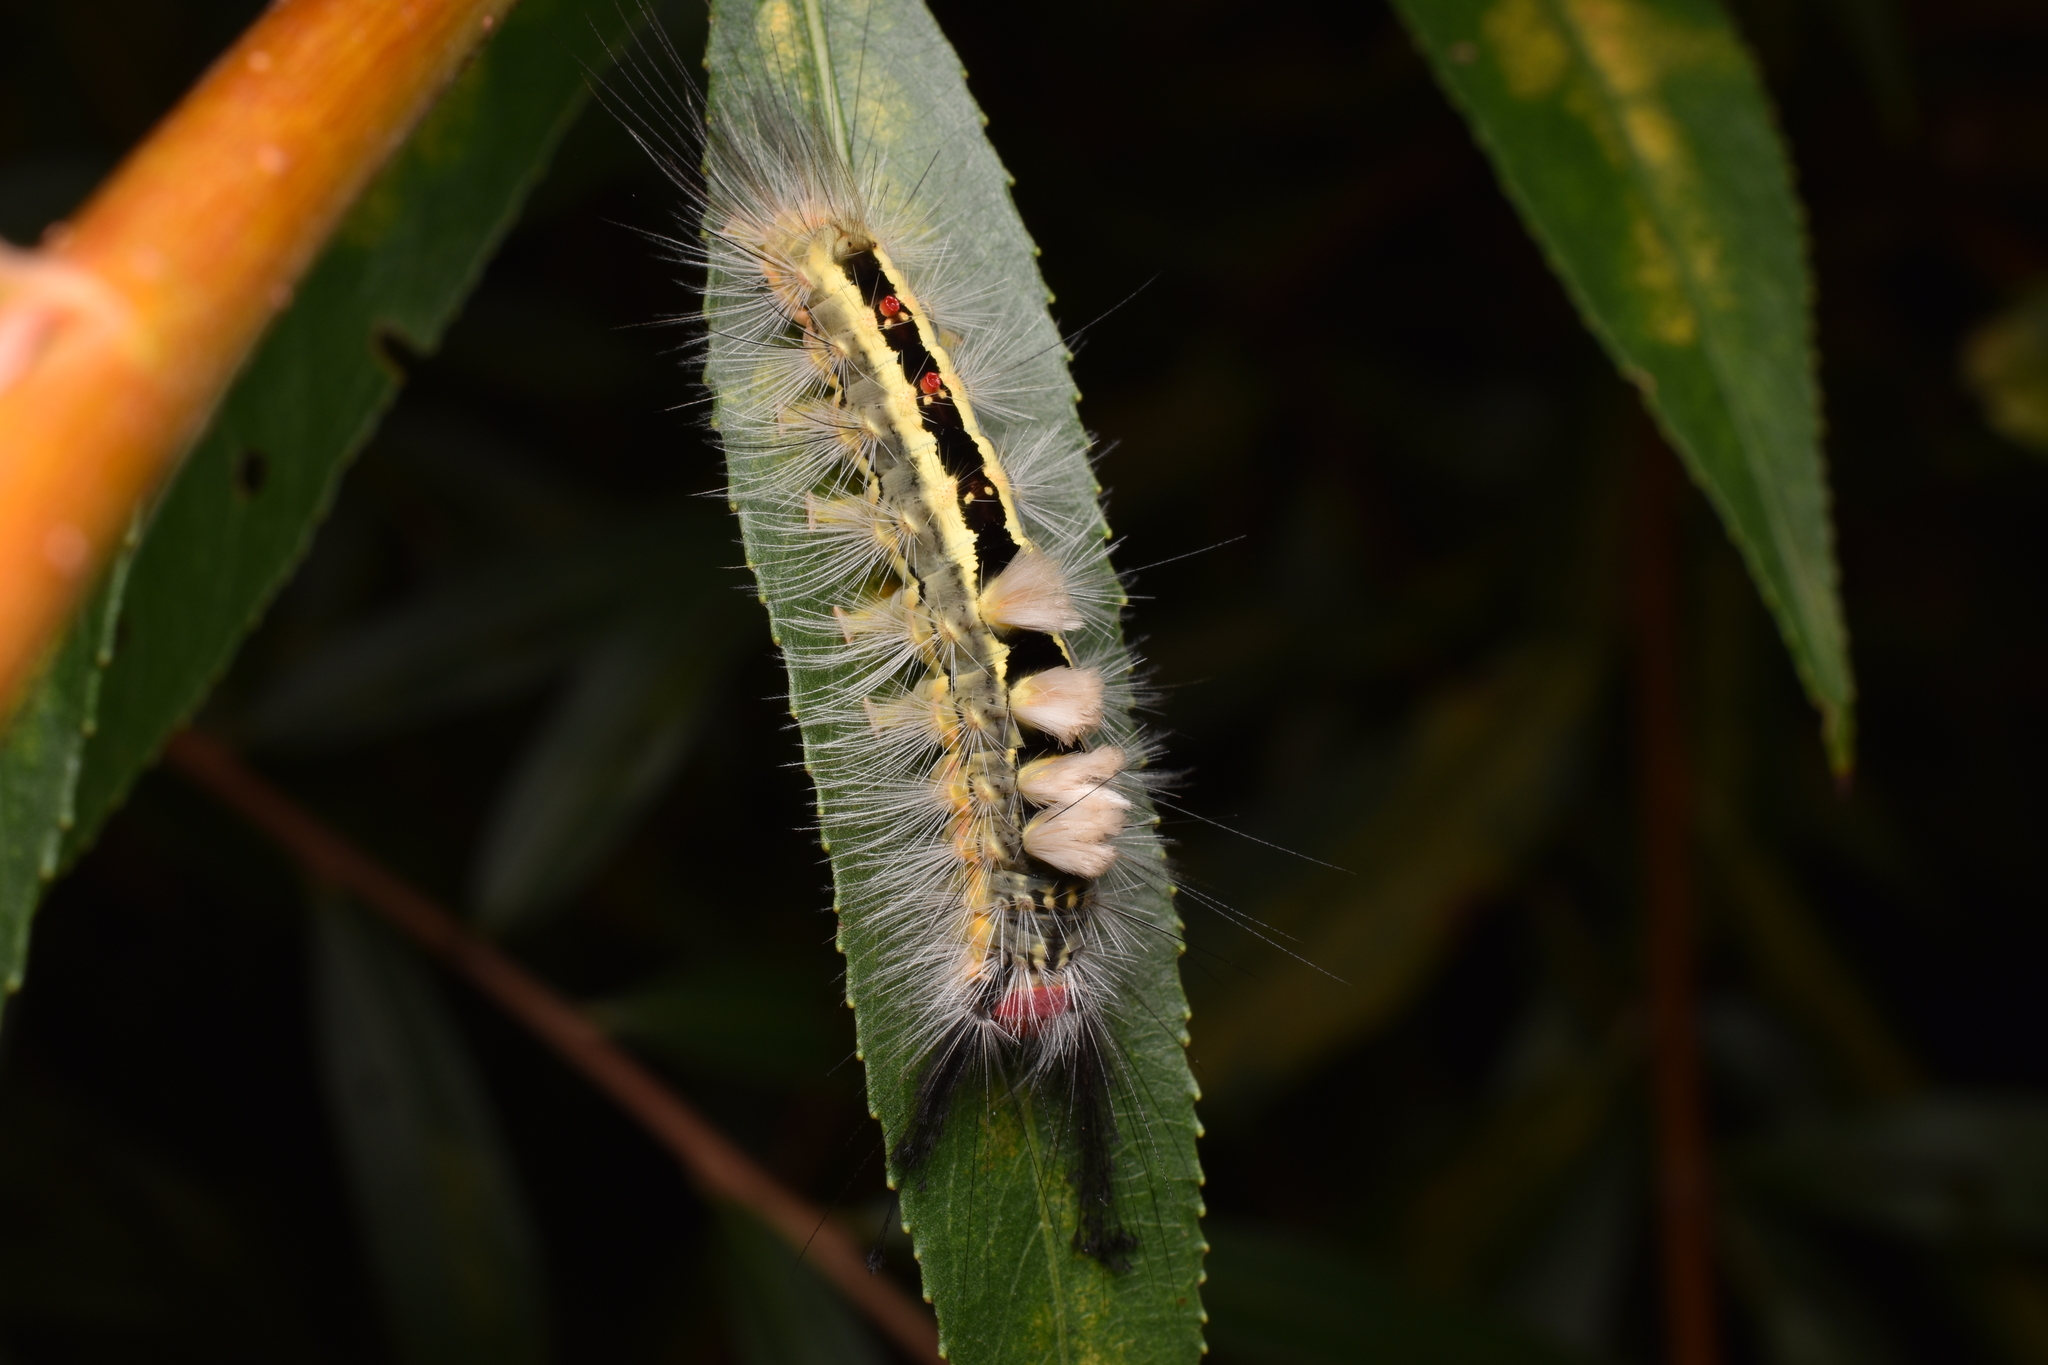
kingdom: Animalia
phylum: Arthropoda
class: Insecta
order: Lepidoptera
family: Erebidae
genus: Orgyia
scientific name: Orgyia leucostigma
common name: White-marked tussock moth
